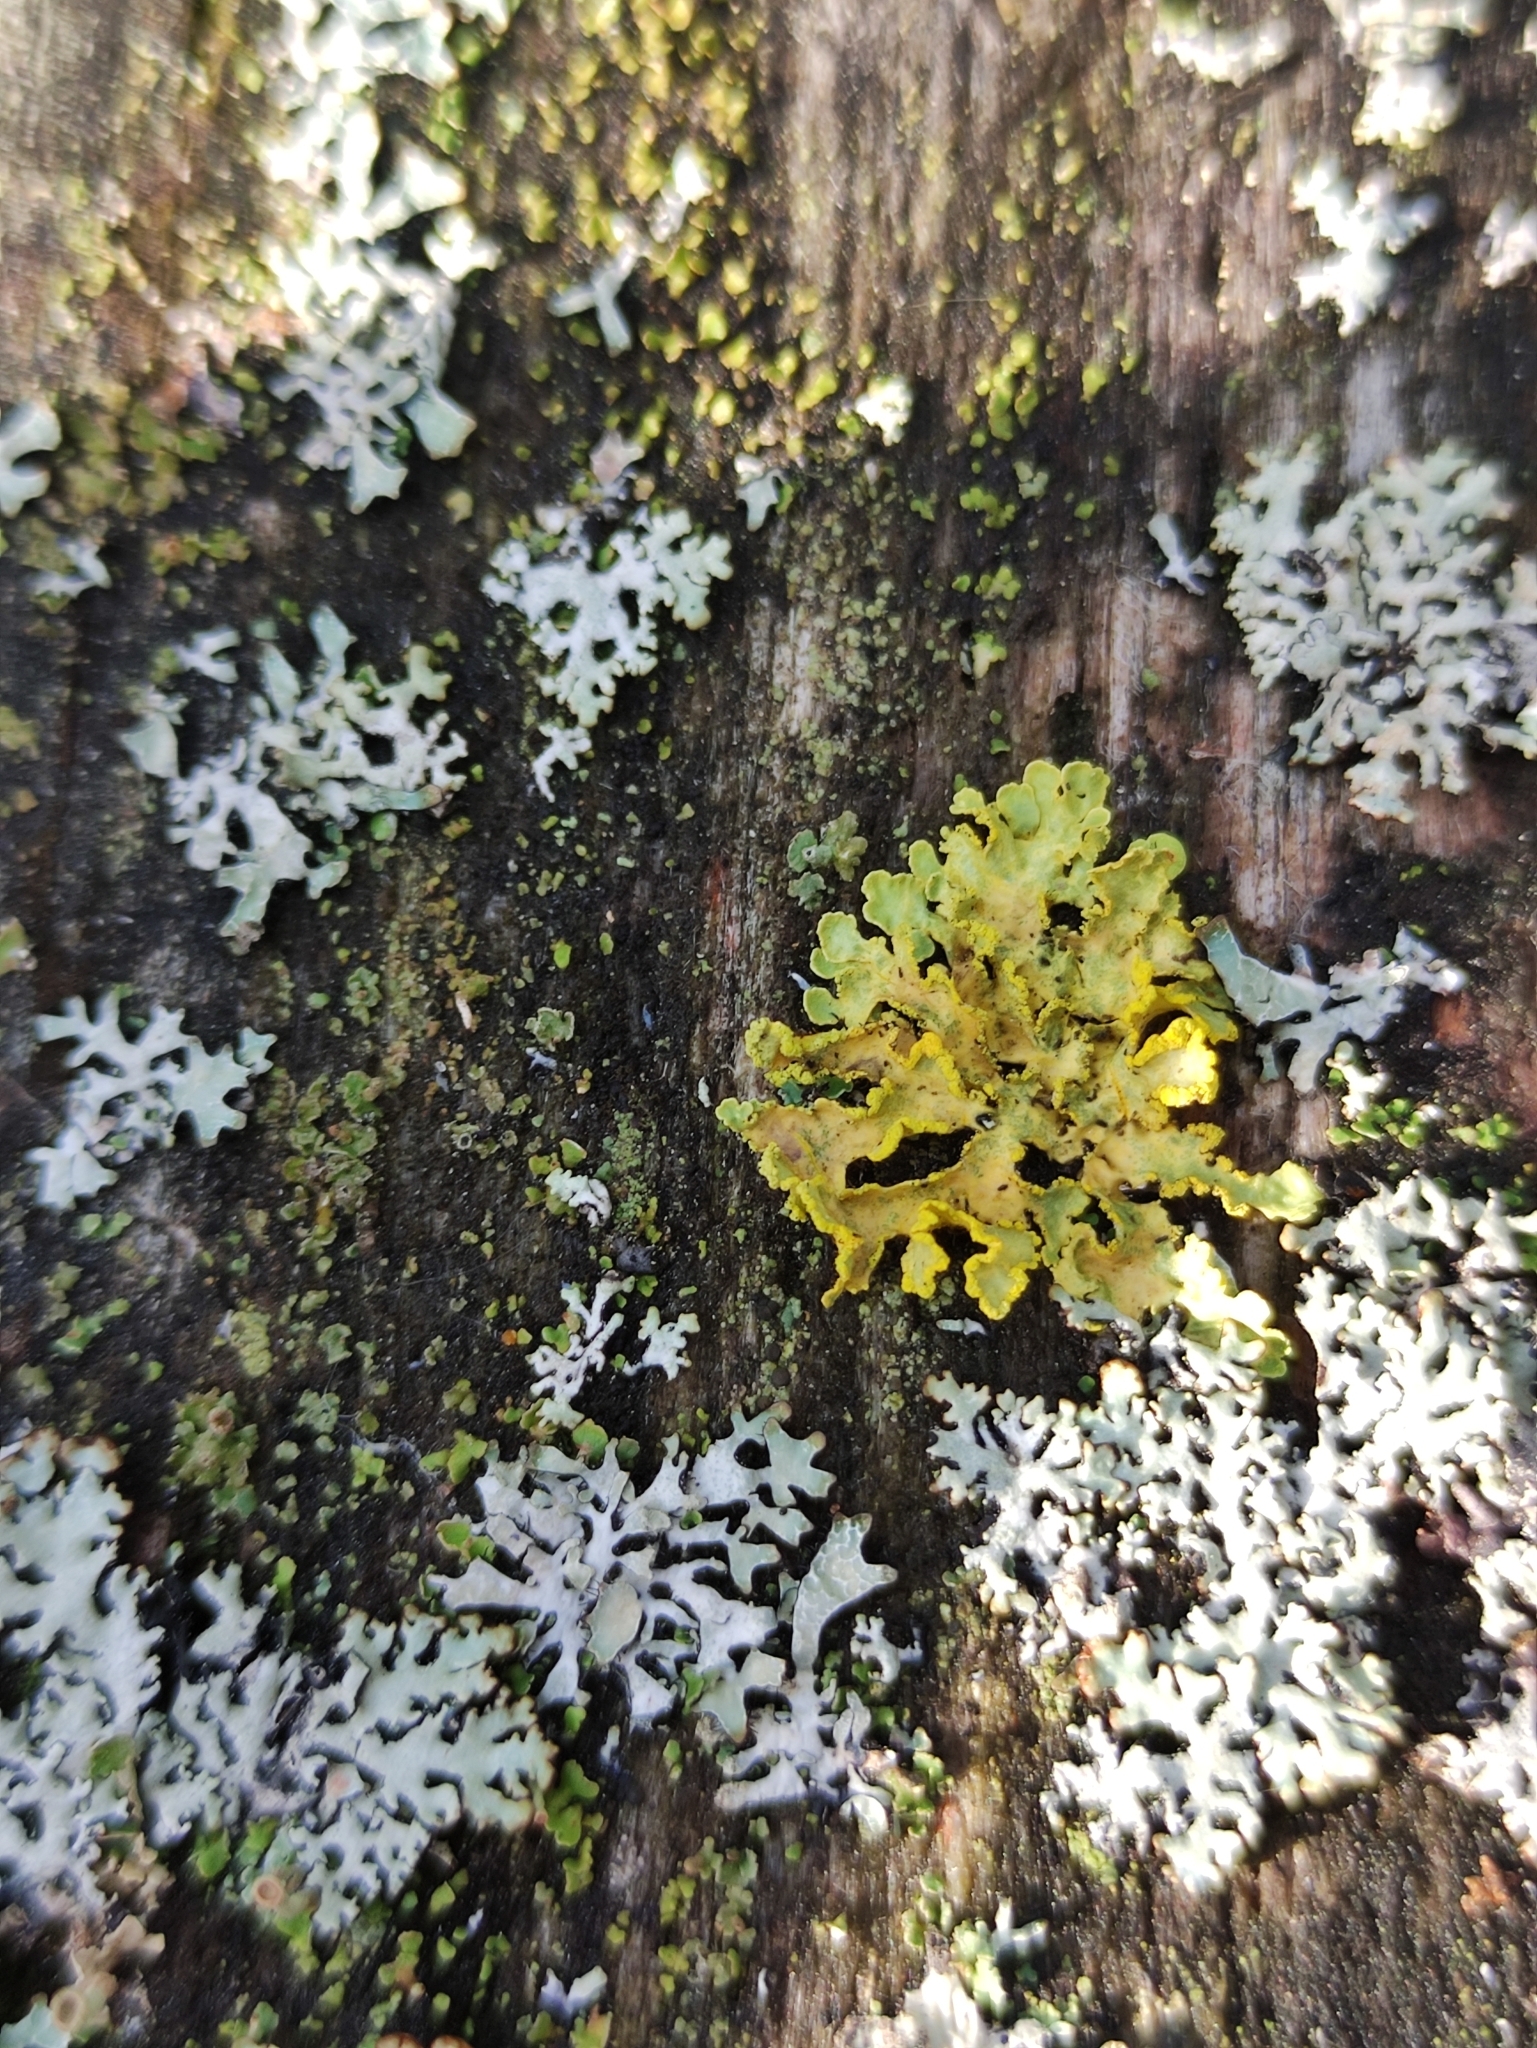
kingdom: Fungi
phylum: Ascomycota
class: Lecanoromycetes
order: Lecanorales
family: Parmeliaceae
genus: Vulpicida
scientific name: Vulpicida pinastri
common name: Powdered sunshine lichen
